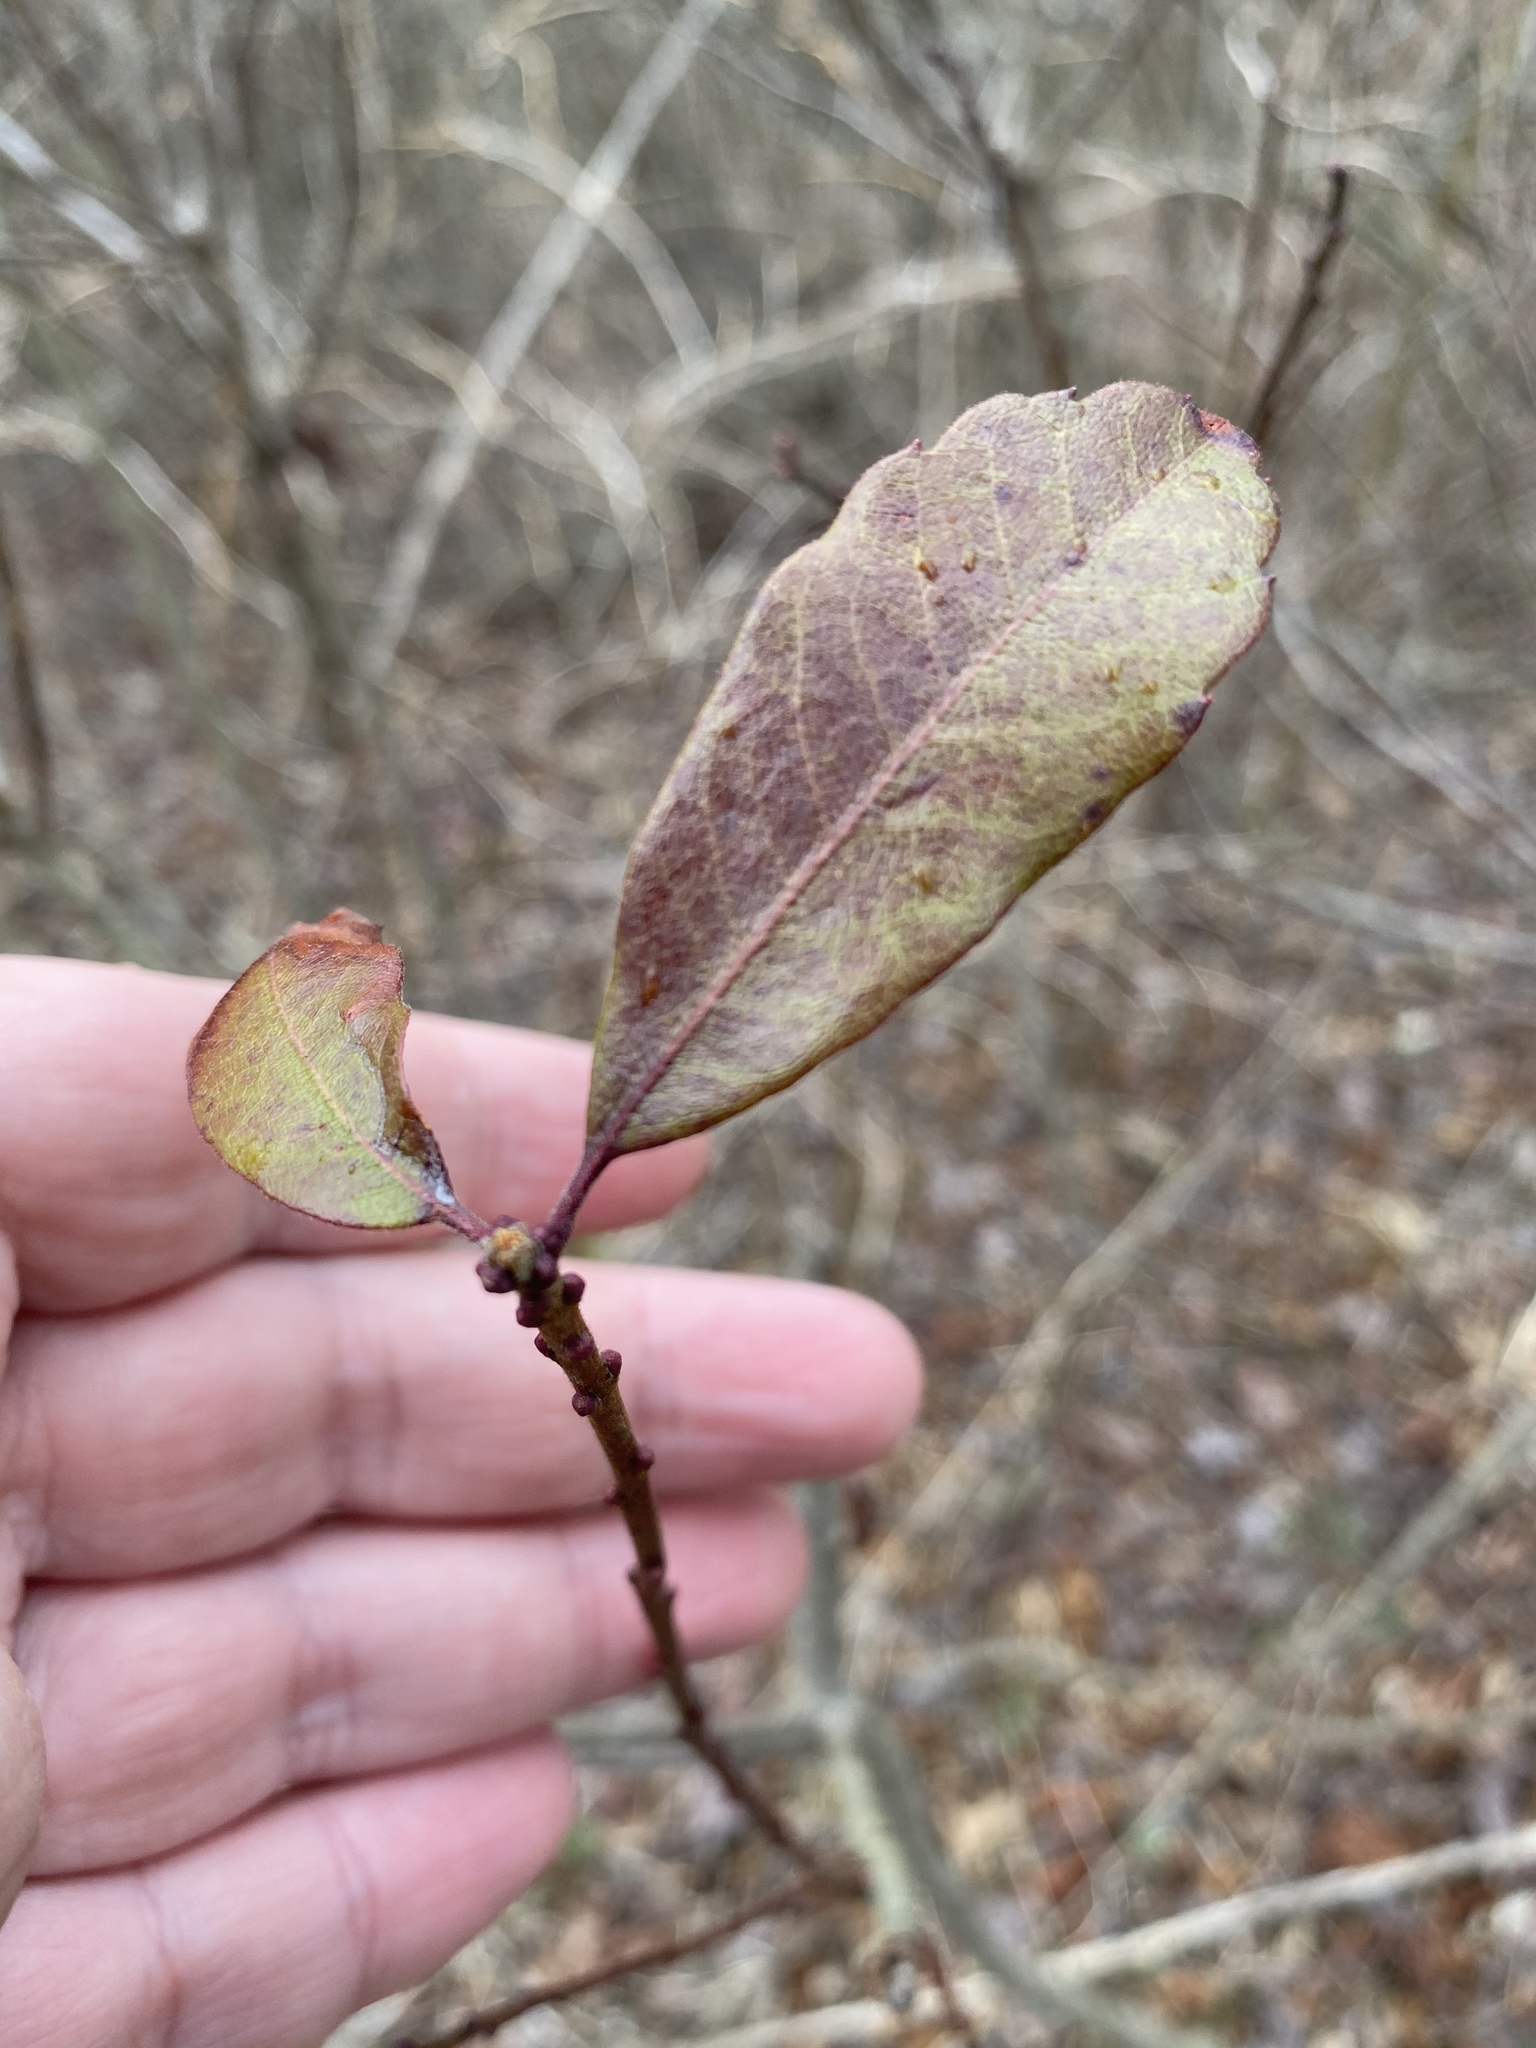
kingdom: Plantae
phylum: Tracheophyta
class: Magnoliopsida
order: Fagales
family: Myricaceae
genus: Morella
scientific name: Morella pensylvanica
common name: Northern bayberry
